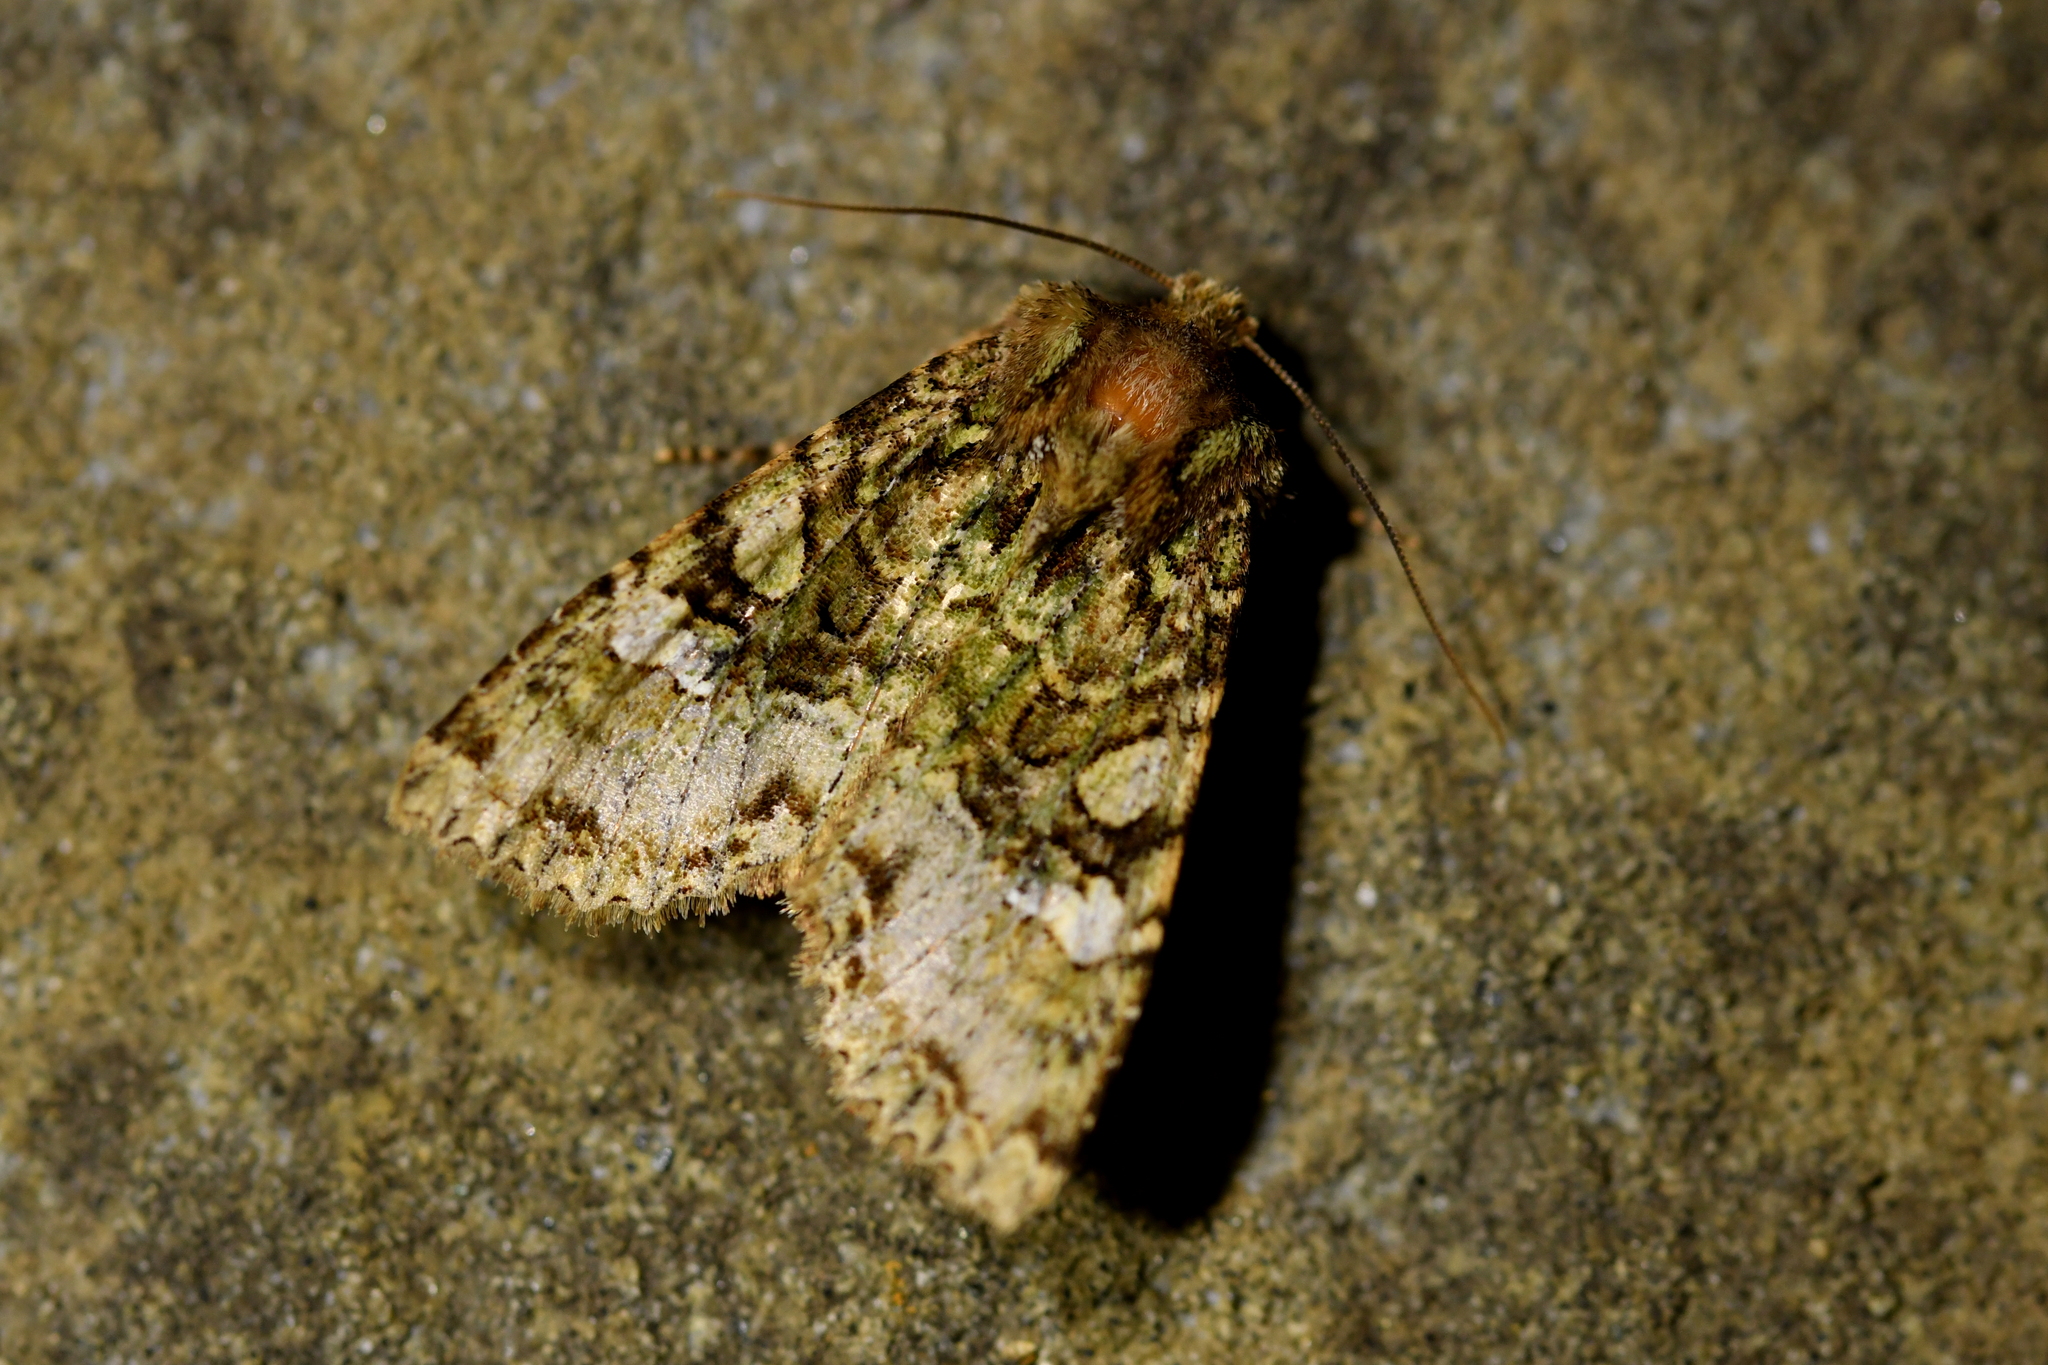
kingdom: Animalia
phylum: Arthropoda
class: Insecta
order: Lepidoptera
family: Noctuidae
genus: Meterana
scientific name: Meterana
